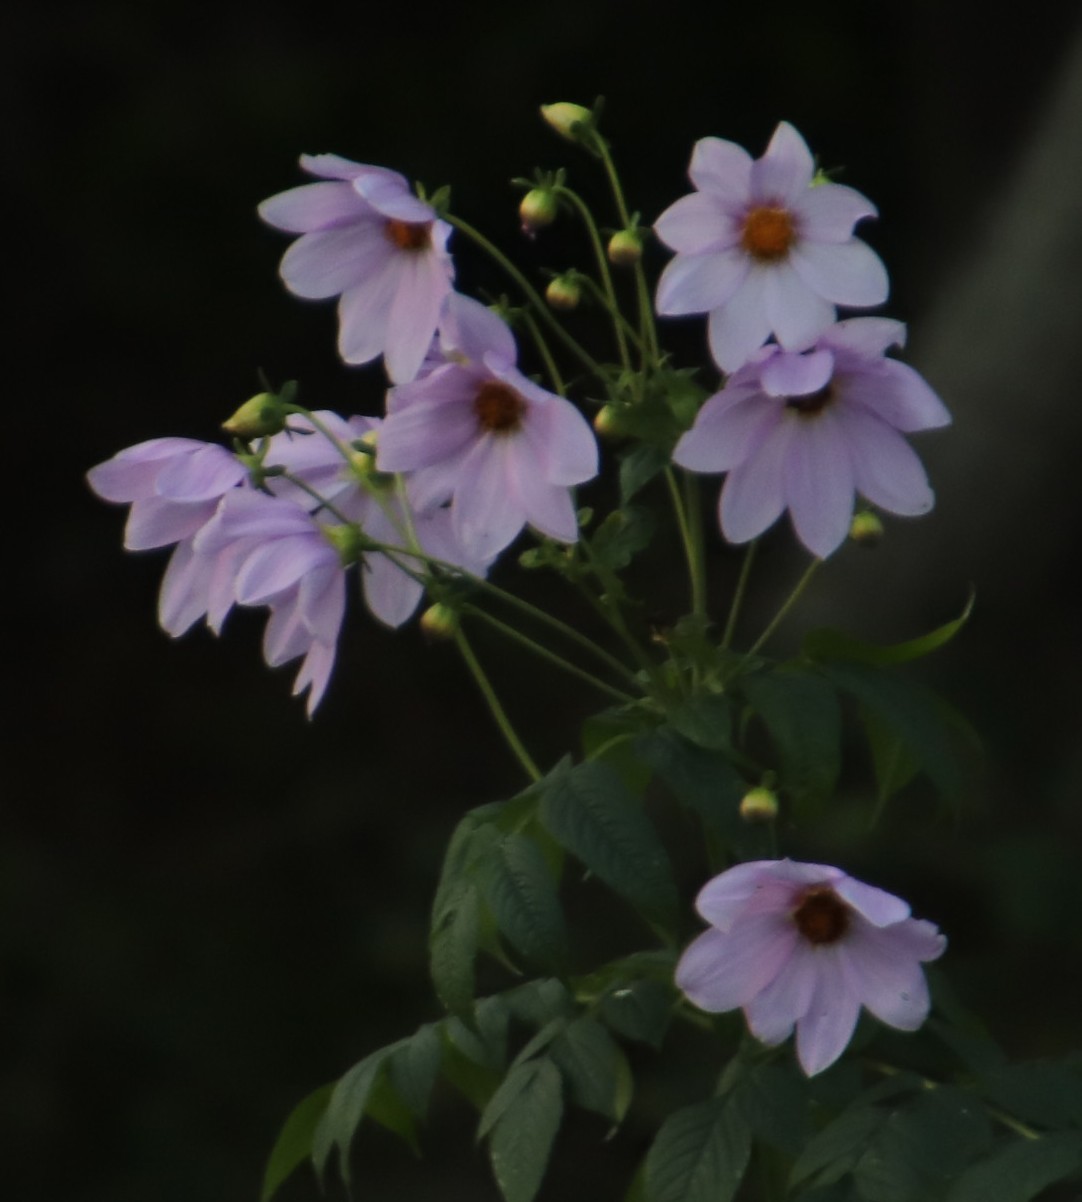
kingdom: Plantae
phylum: Tracheophyta
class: Magnoliopsida
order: Asterales
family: Asteraceae
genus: Dahlia
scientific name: Dahlia imperialis
